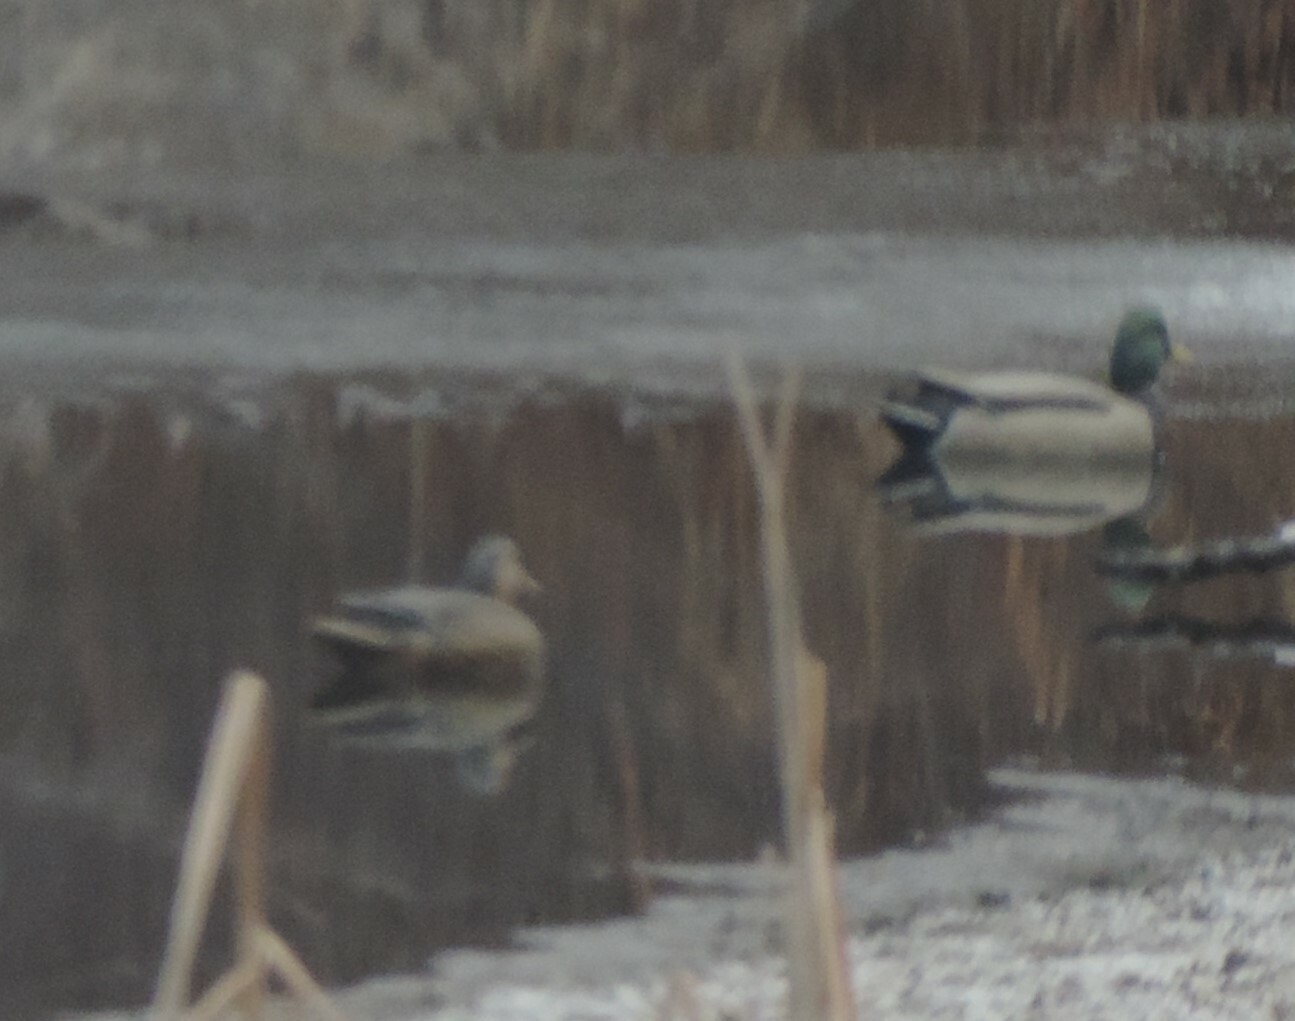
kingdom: Animalia
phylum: Chordata
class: Aves
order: Anseriformes
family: Anatidae
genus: Anas
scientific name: Anas platyrhynchos
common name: Mallard
